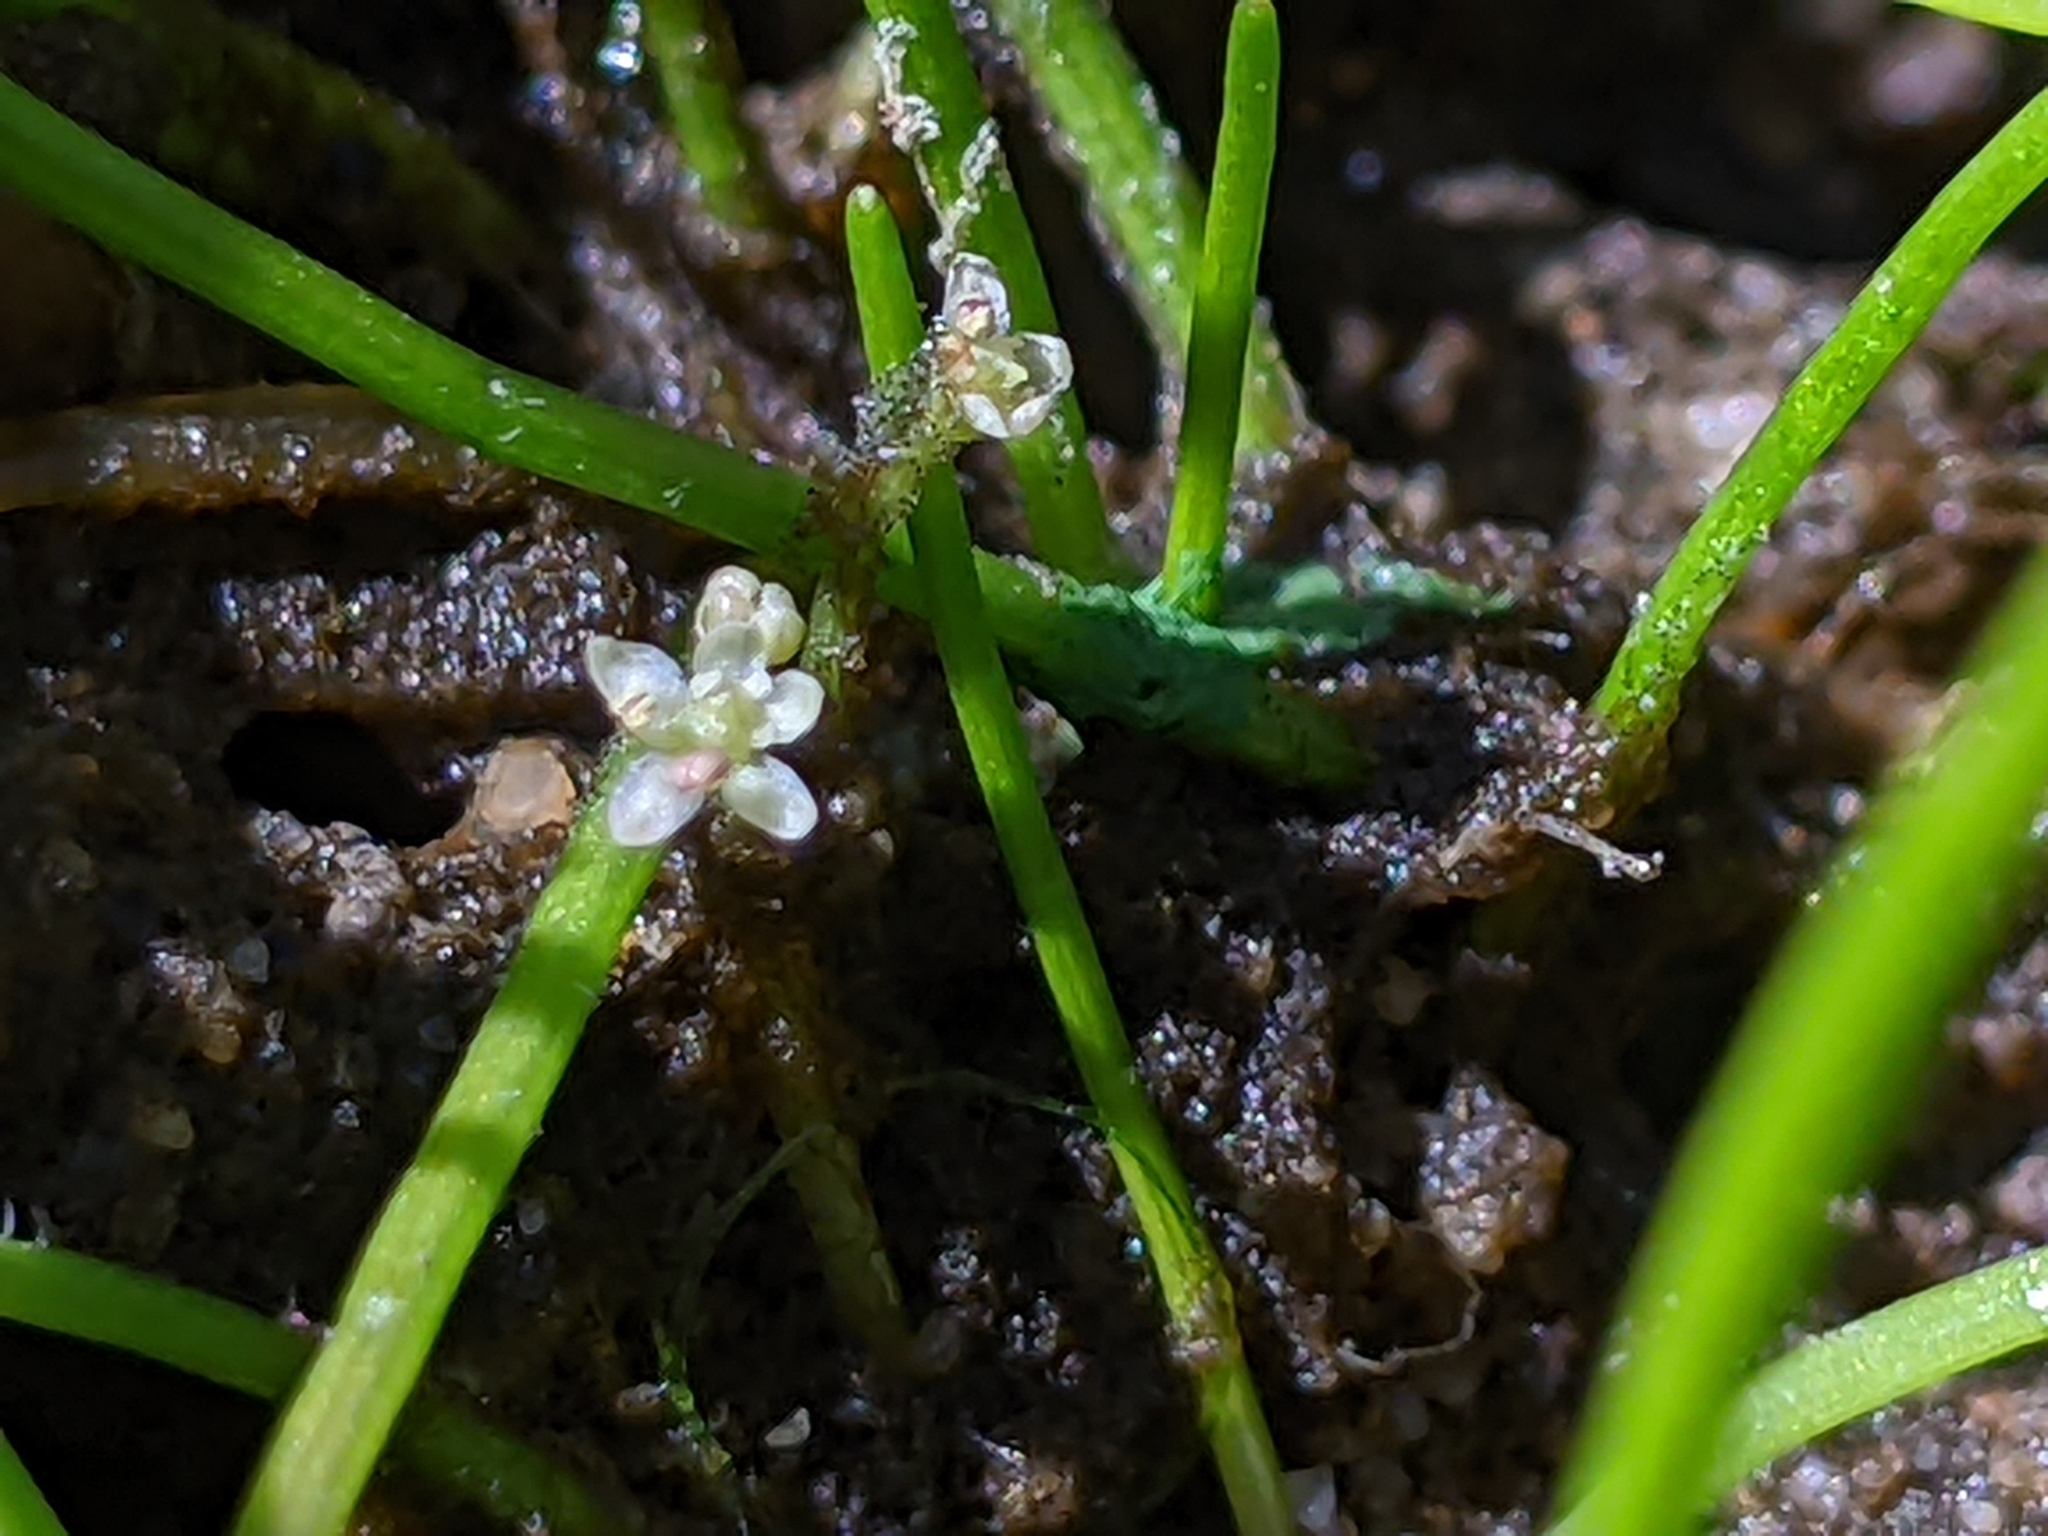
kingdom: Plantae
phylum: Tracheophyta
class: Magnoliopsida
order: Apiales
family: Apiaceae
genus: Lilaeopsis
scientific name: Lilaeopsis occidentalis
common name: Western grasswort
